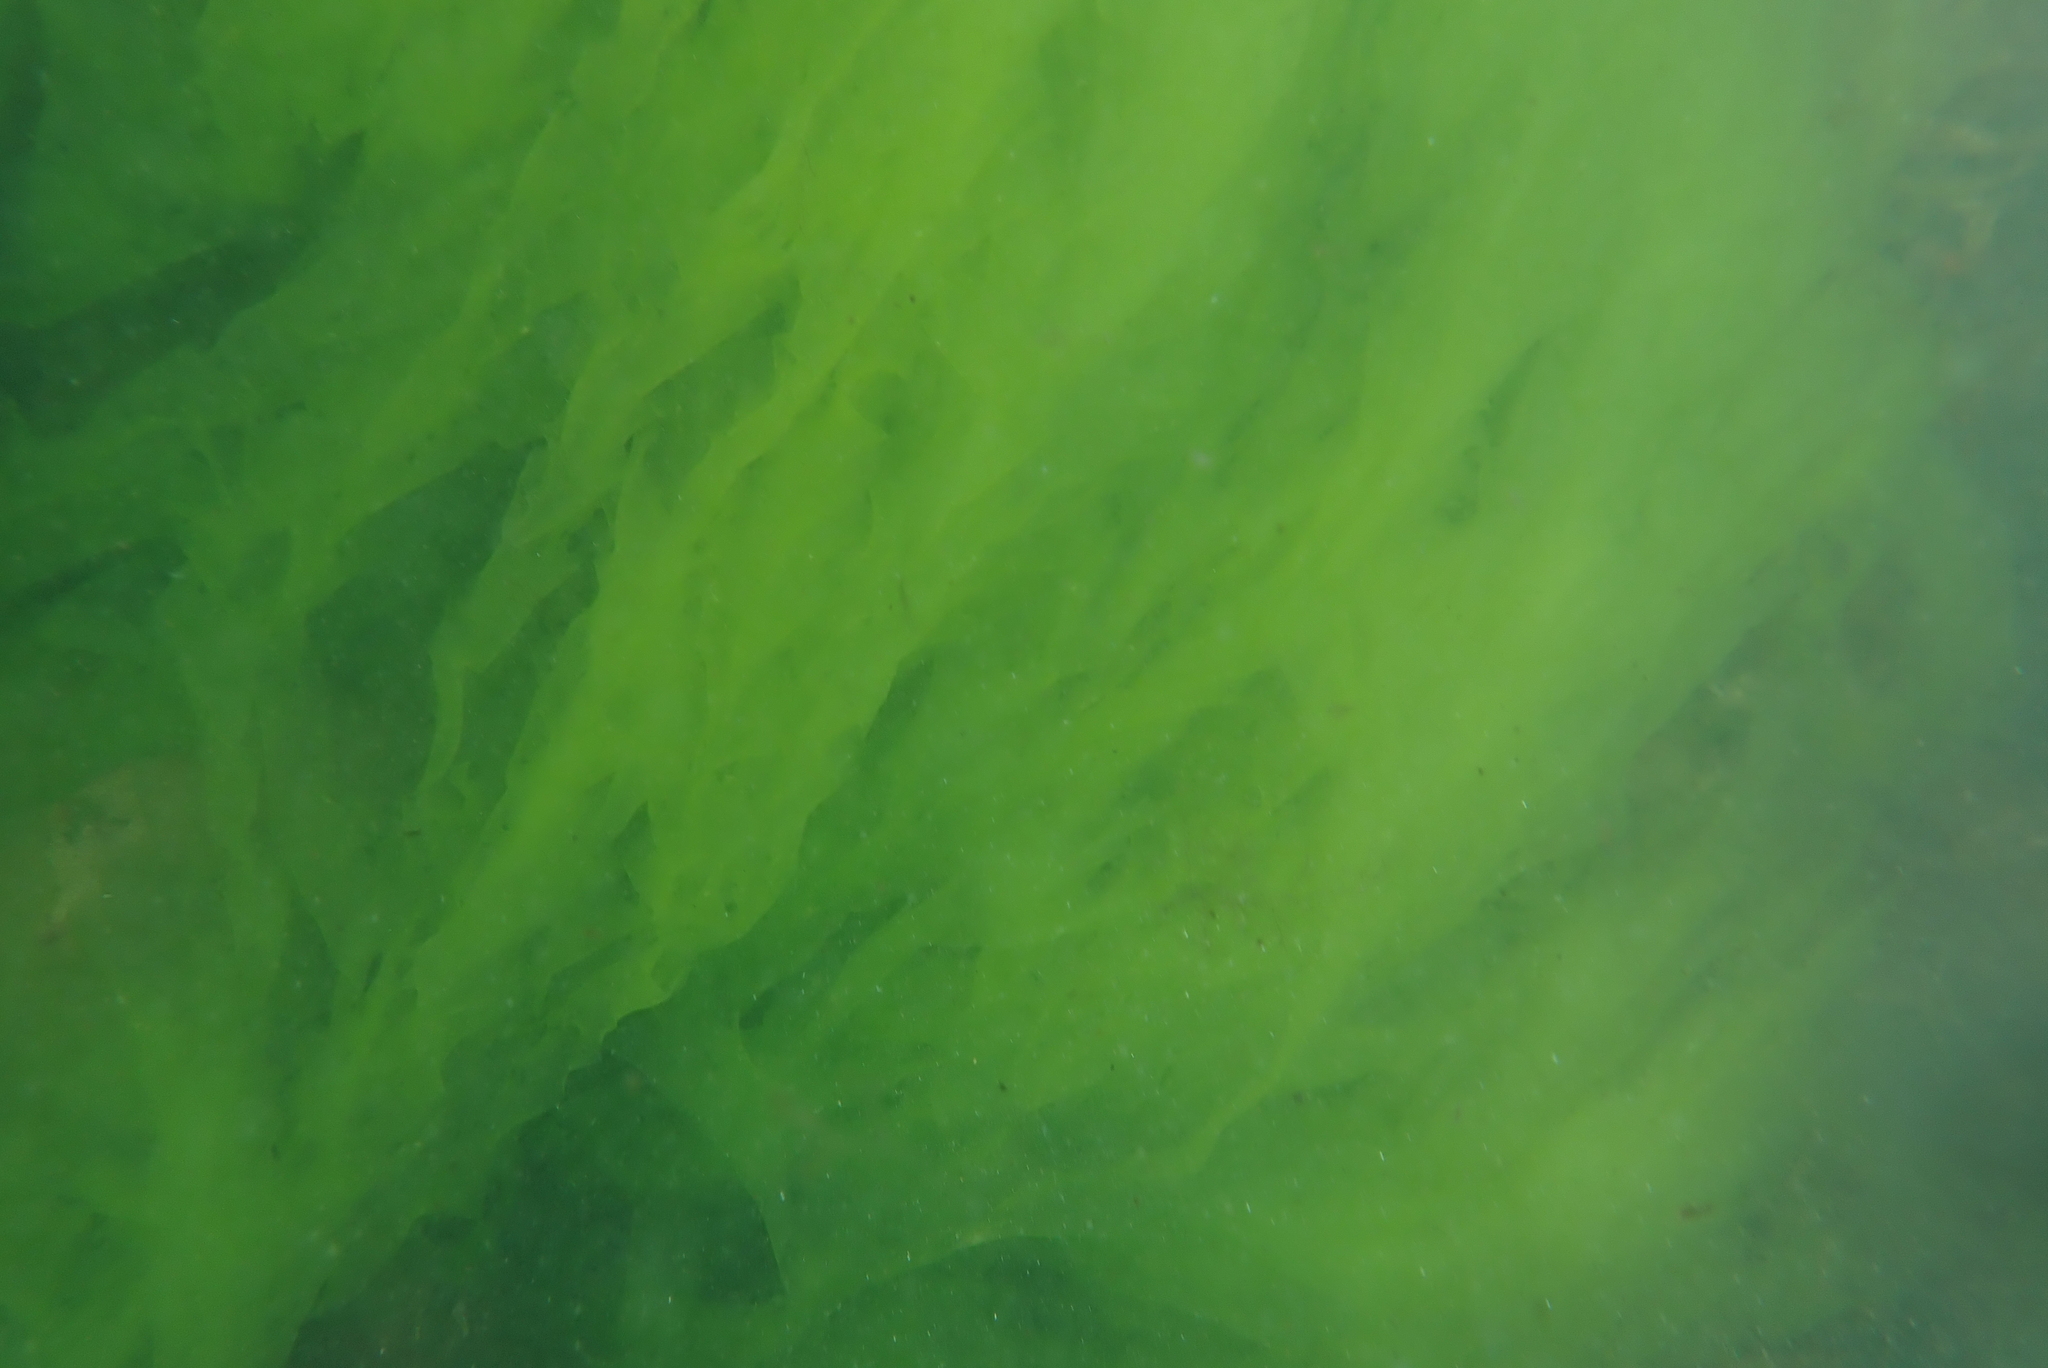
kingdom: Plantae
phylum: Chlorophyta
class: Ulvophyceae
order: Ulvales
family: Ulvaceae
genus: Ulva
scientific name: Ulva
